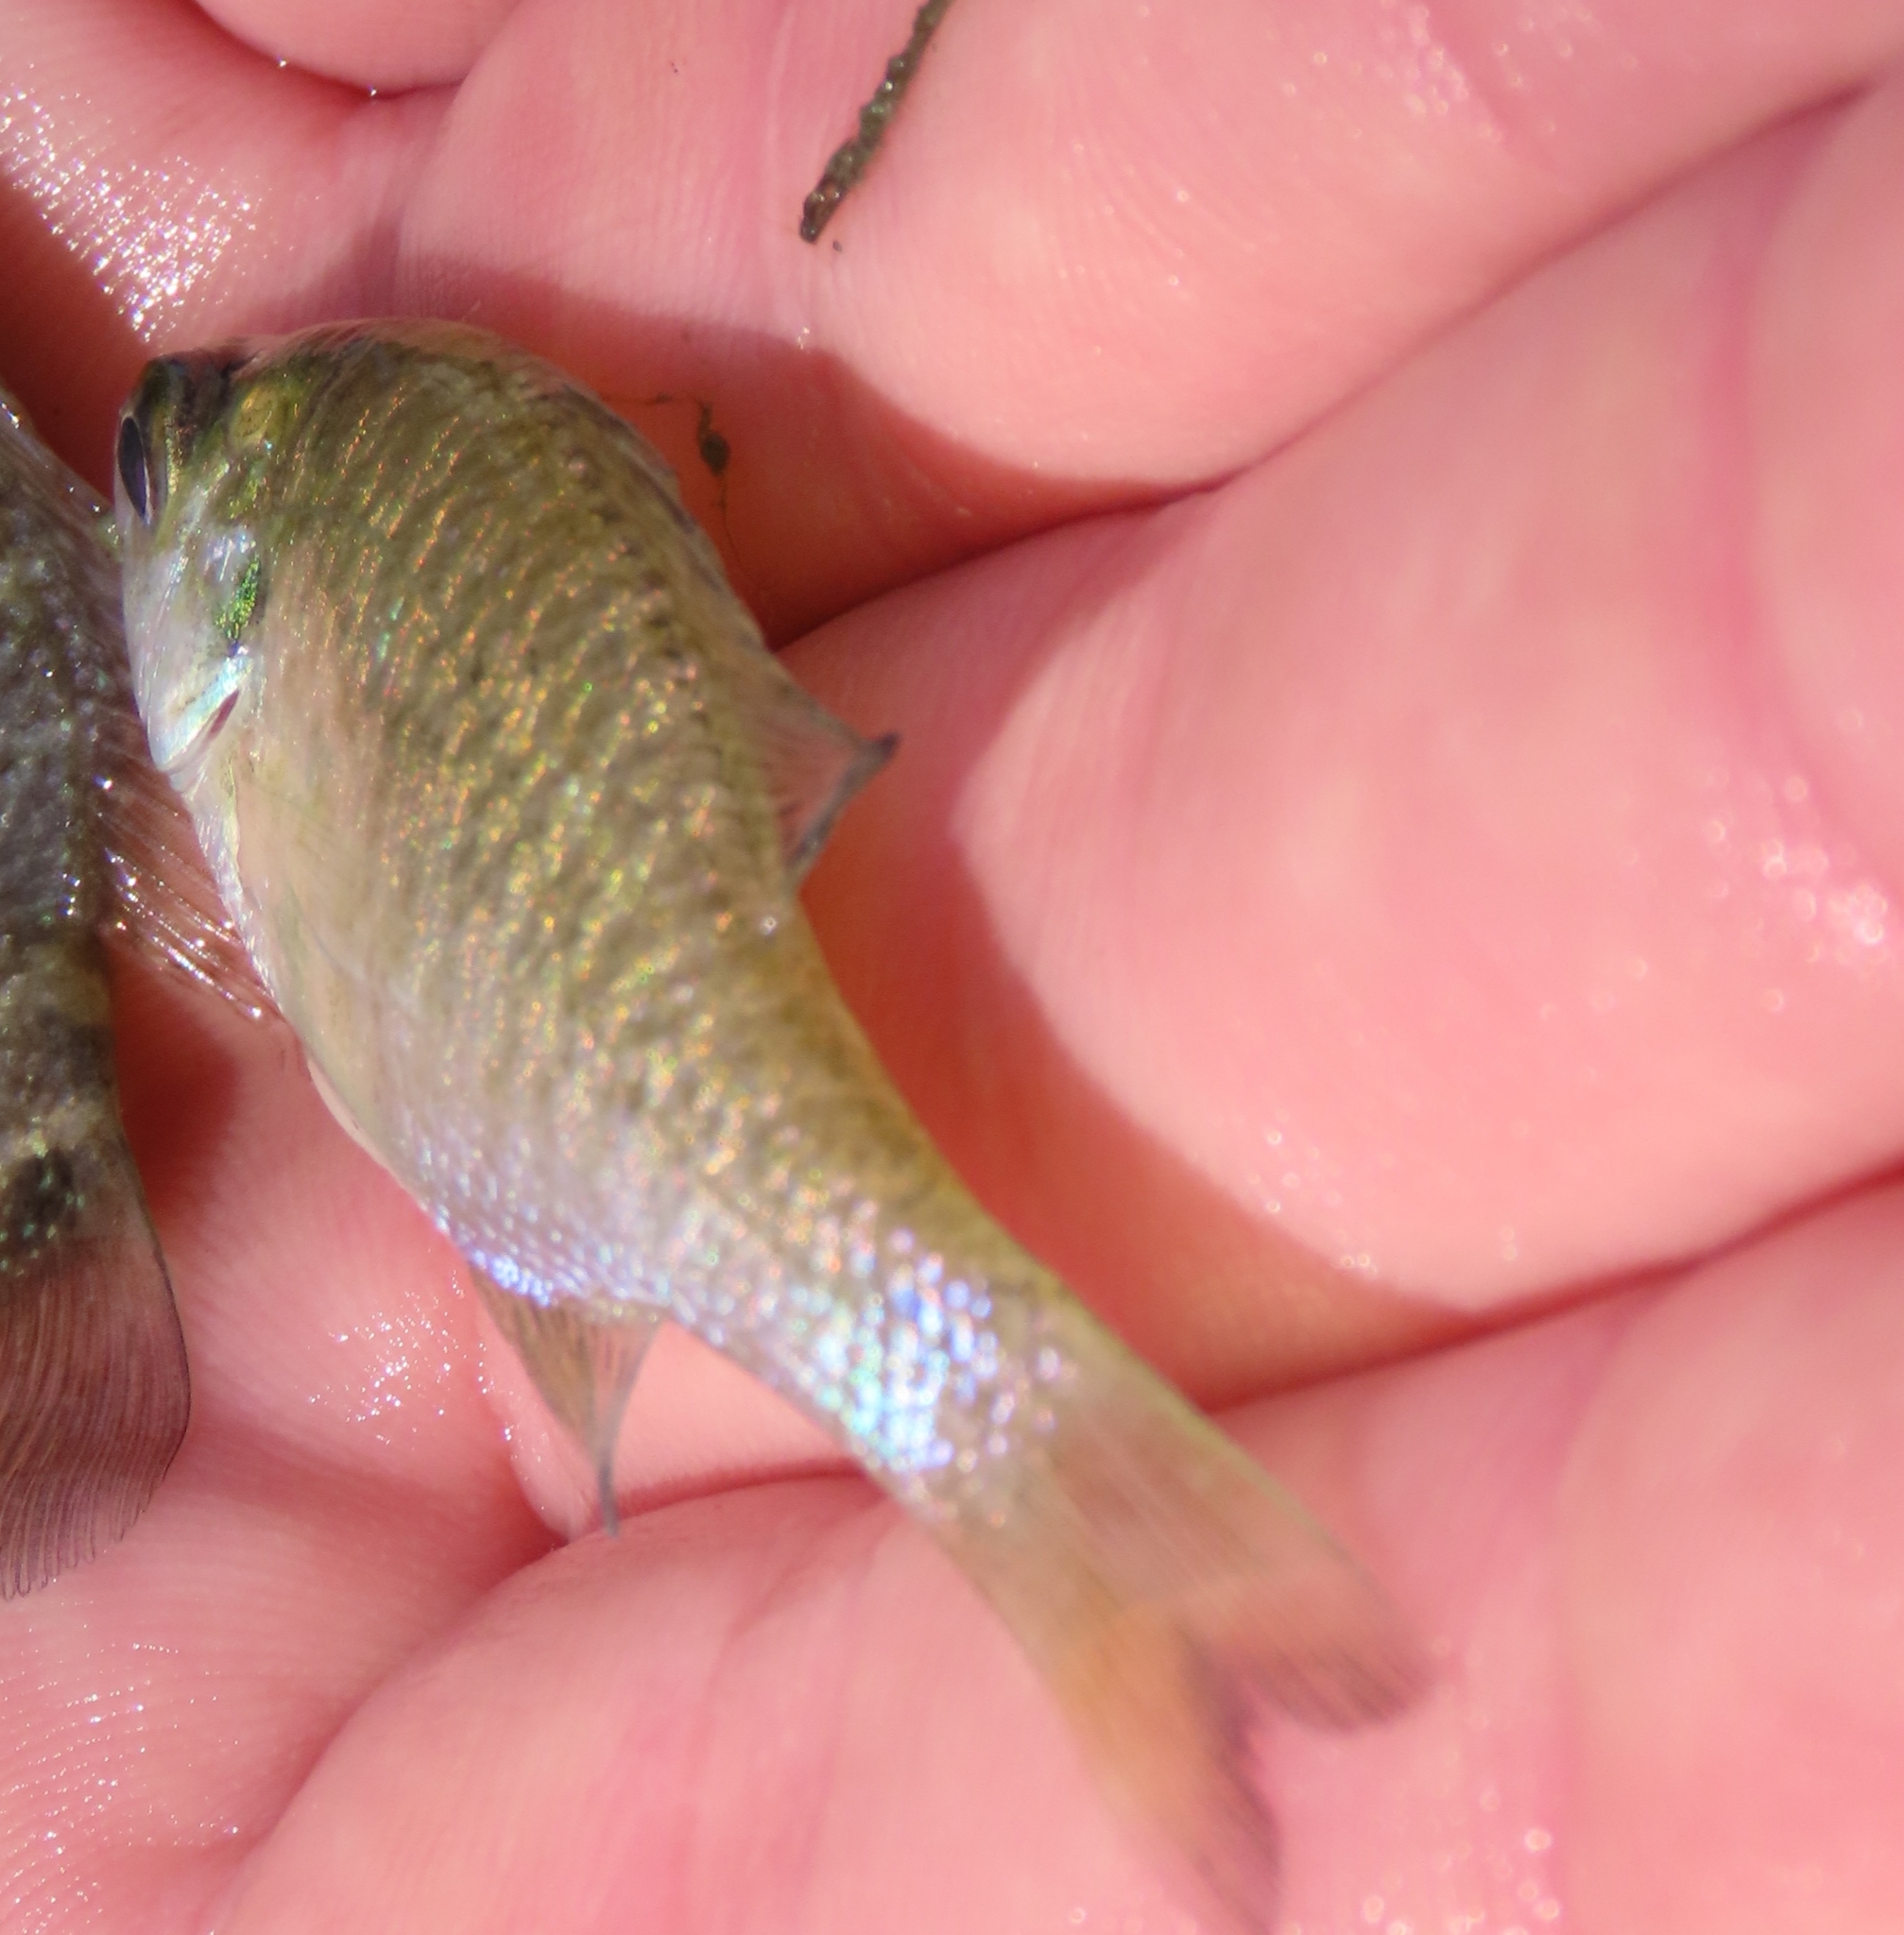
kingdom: Animalia
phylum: Chordata
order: Perciformes
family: Centrarchidae
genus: Lepomis
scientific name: Lepomis macrochirus
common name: Bluegill
